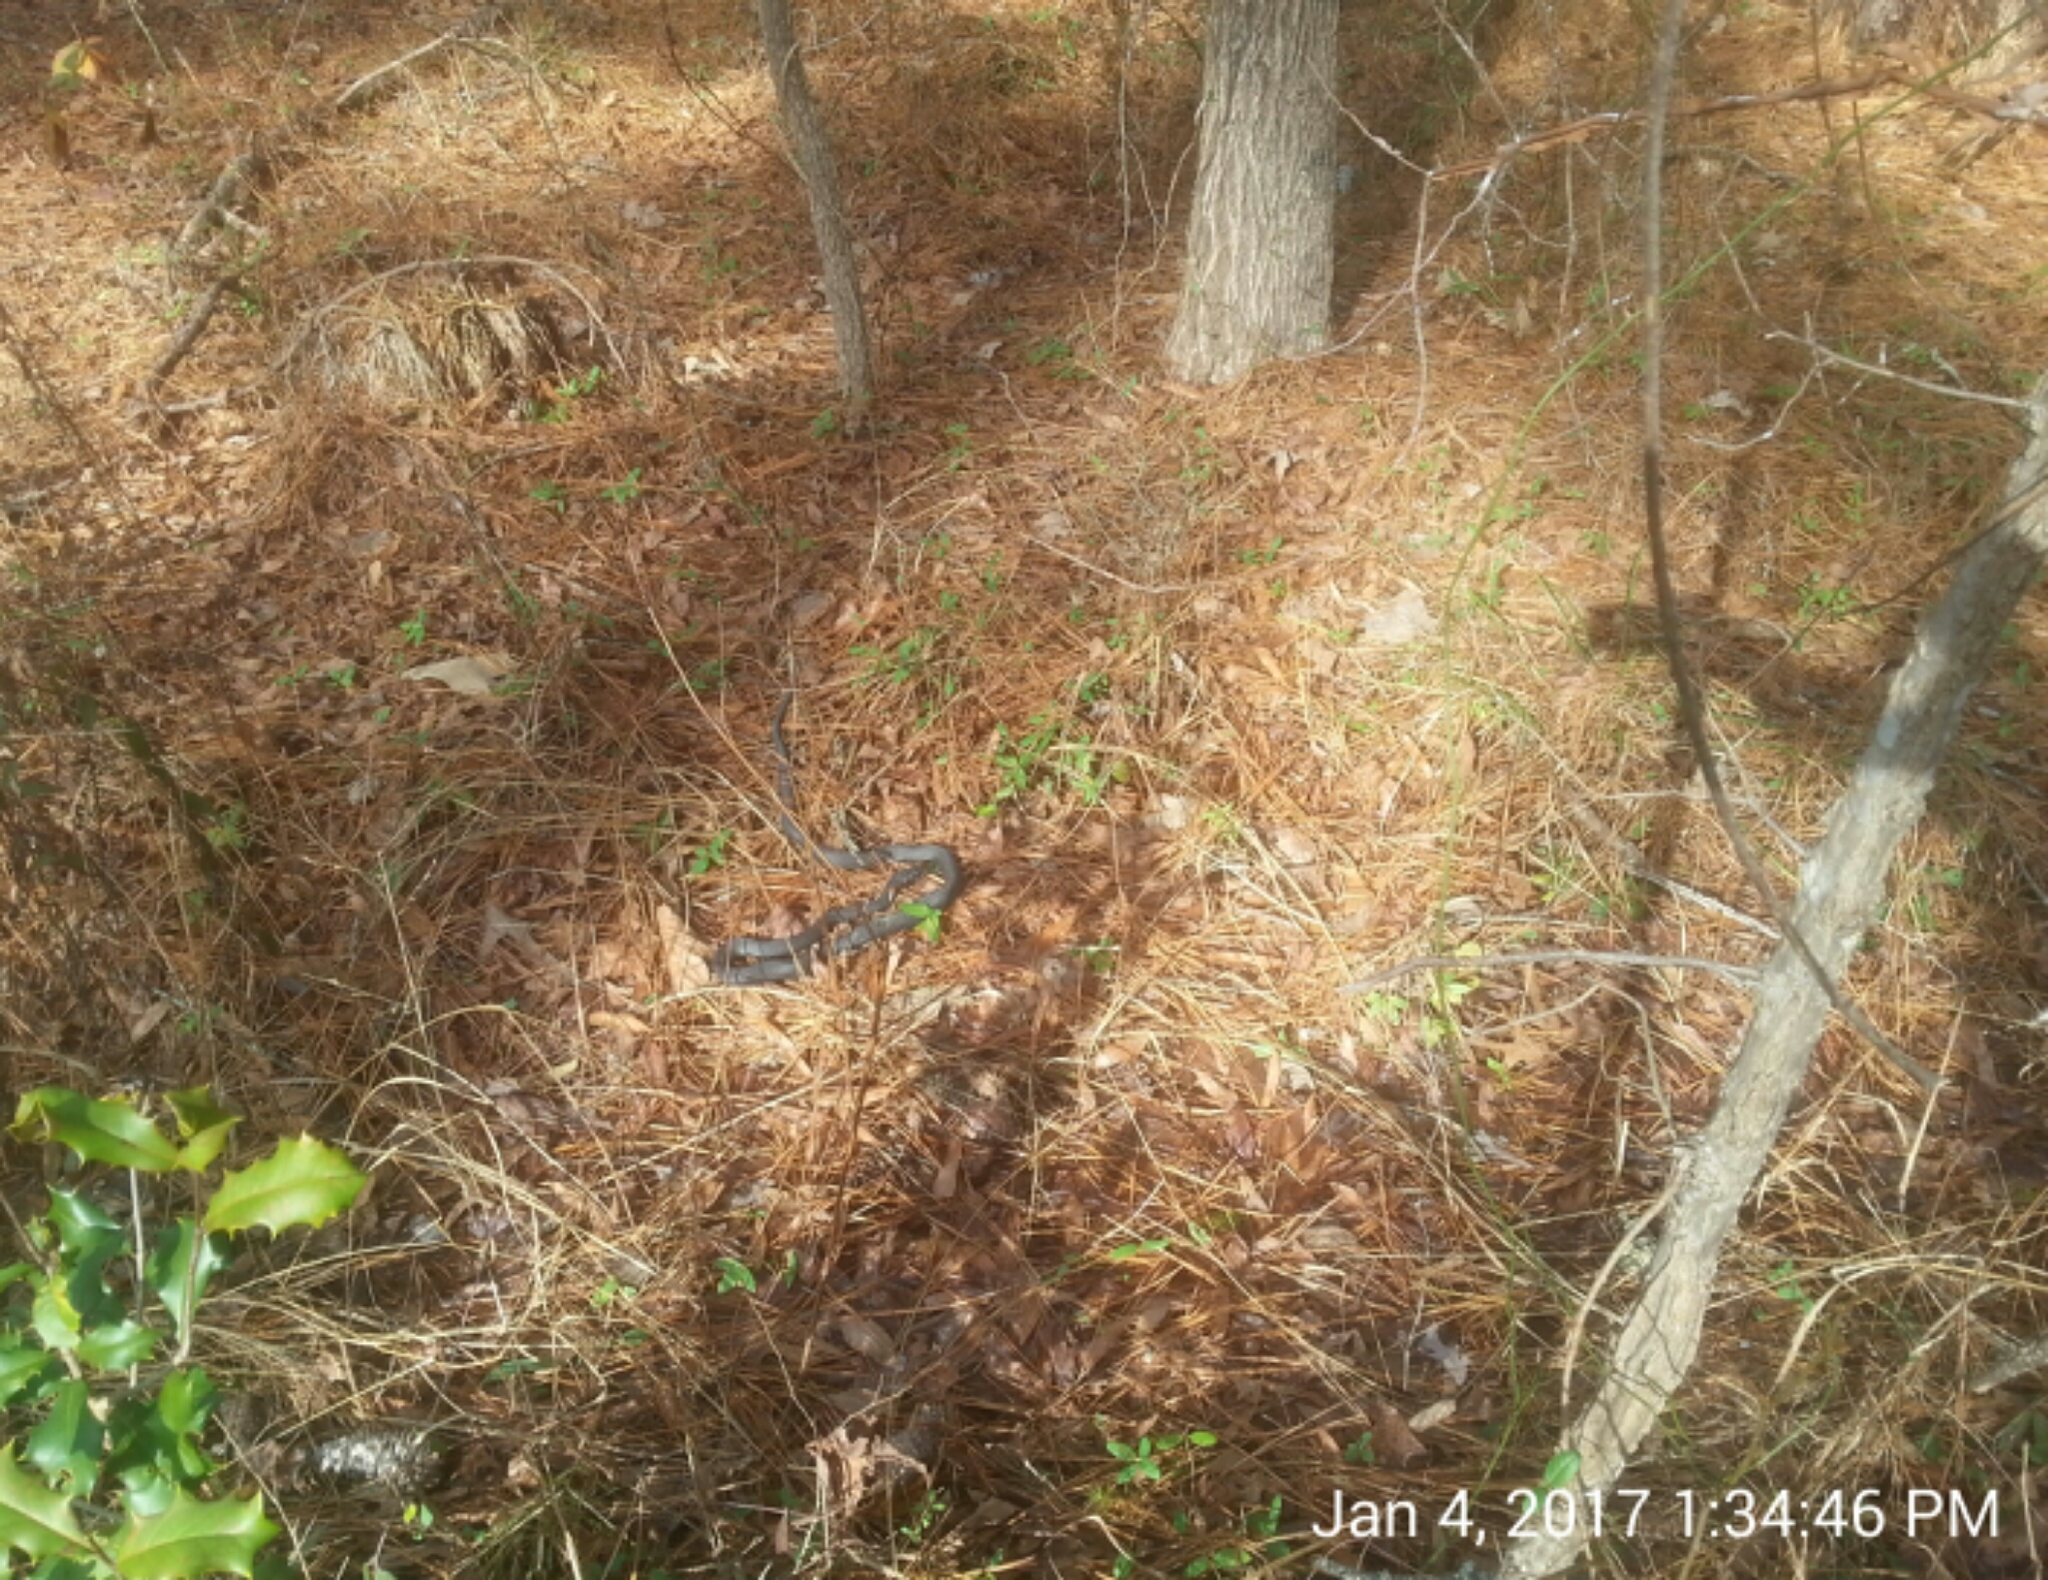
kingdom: Animalia
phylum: Chordata
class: Squamata
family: Colubridae
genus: Coluber
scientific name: Coluber constrictor
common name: Eastern racer
